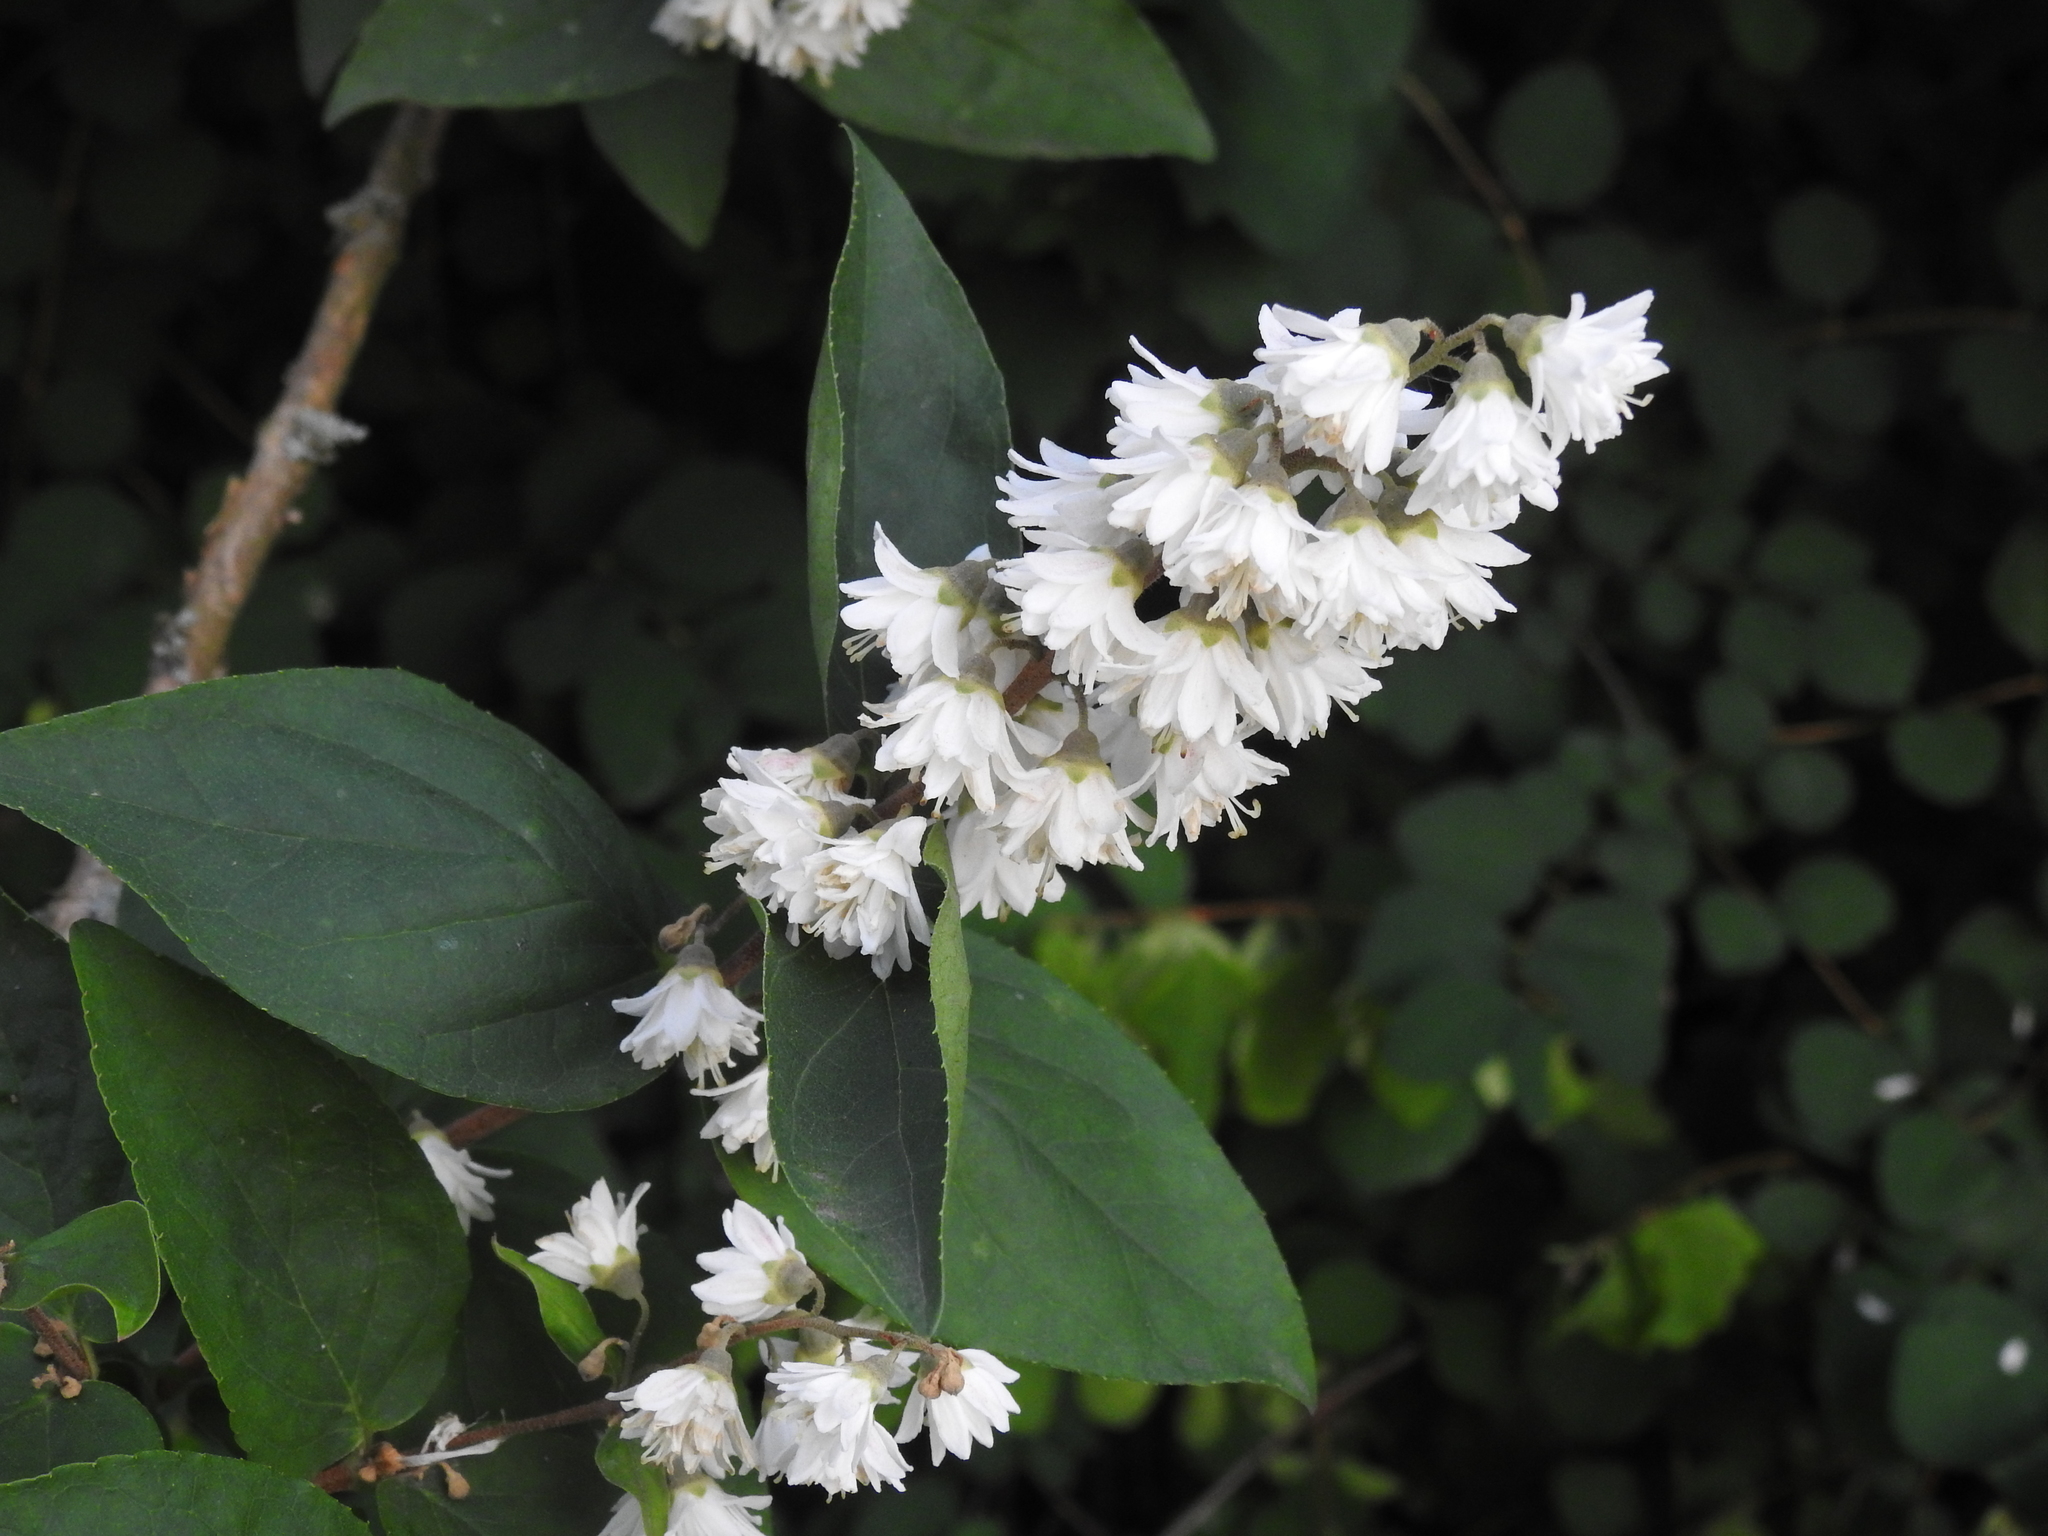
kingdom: Plantae
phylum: Tracheophyta
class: Magnoliopsida
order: Cornales
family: Hydrangeaceae
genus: Deutzia
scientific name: Deutzia scabra
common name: Deutzia
